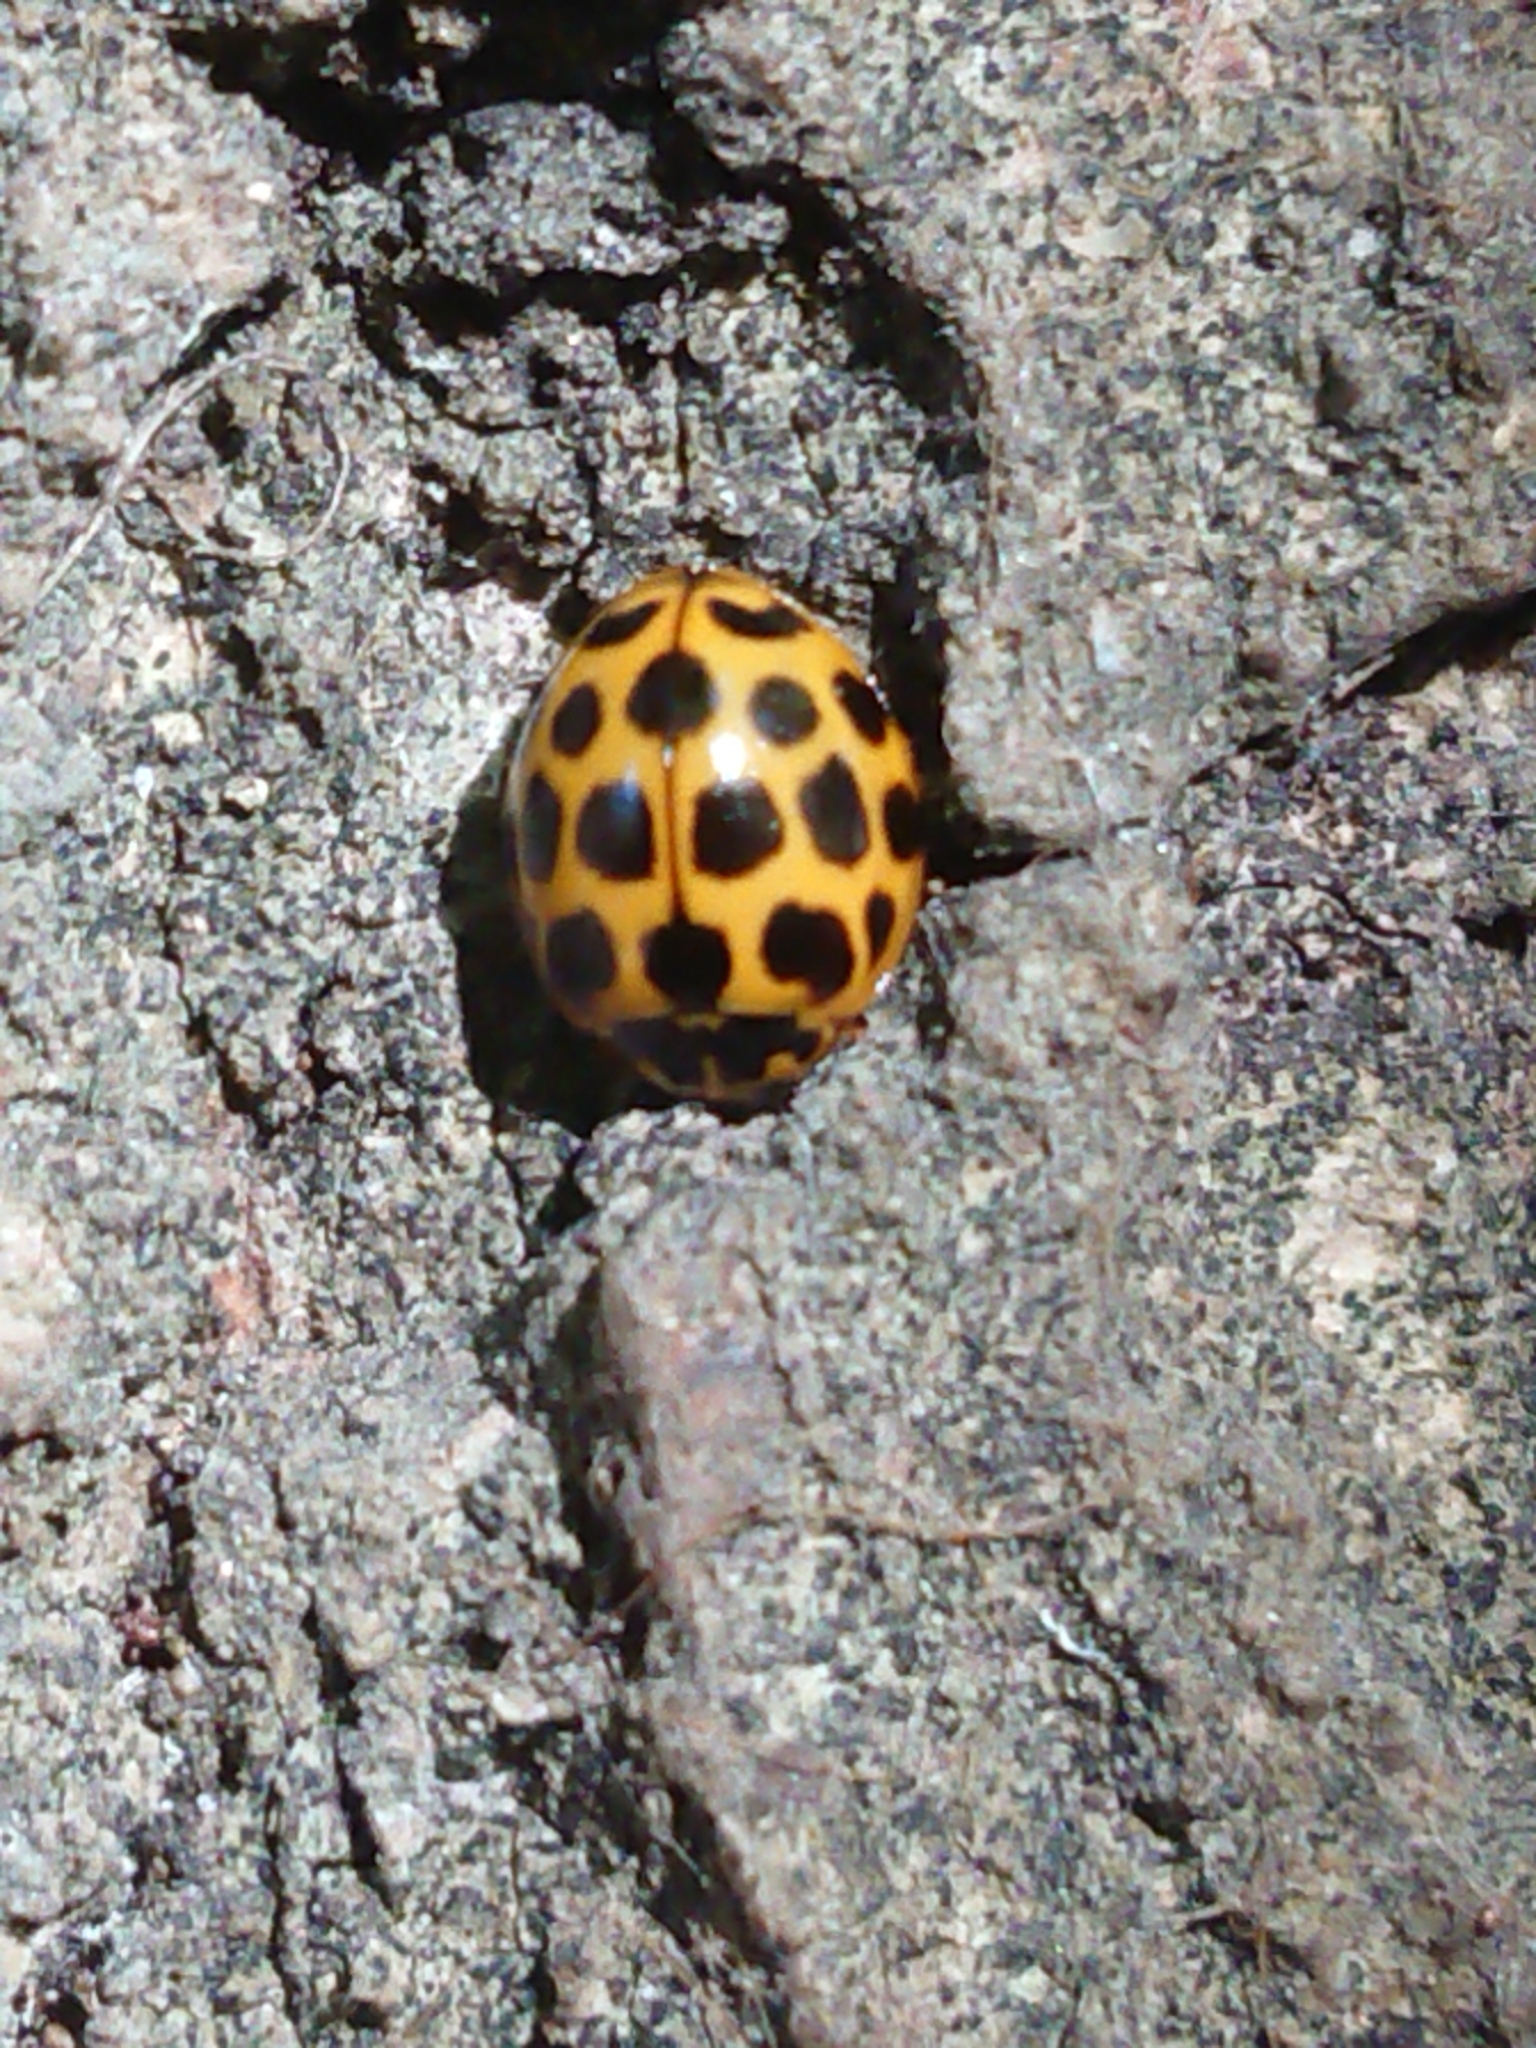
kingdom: Animalia
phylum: Arthropoda
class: Insecta
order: Coleoptera
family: Coccinellidae
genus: Harmonia
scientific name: Harmonia conformis
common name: Common spotted ladybird beetle
